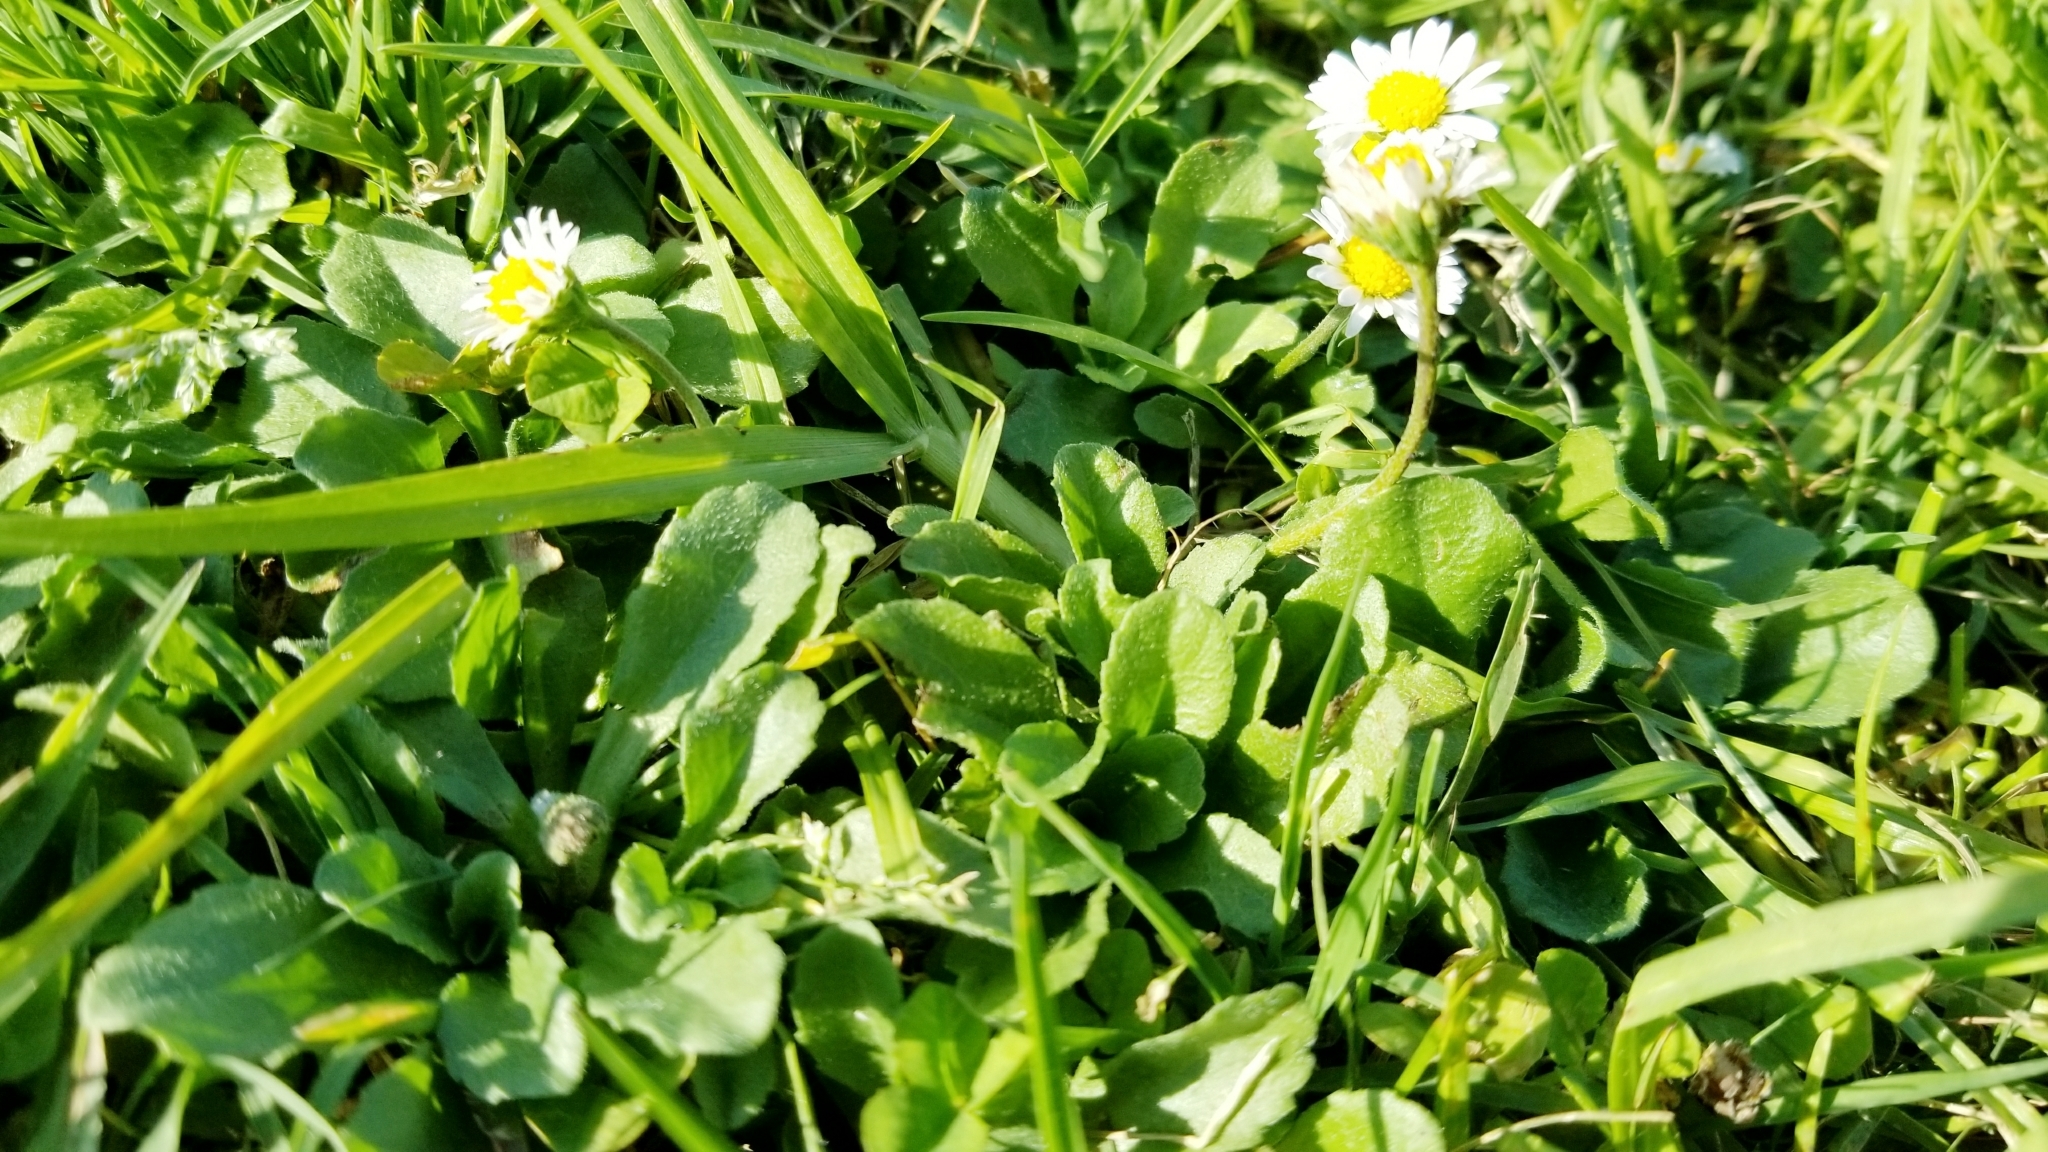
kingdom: Plantae
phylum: Tracheophyta
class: Magnoliopsida
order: Asterales
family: Asteraceae
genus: Bellis
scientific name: Bellis perennis
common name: Lawndaisy
